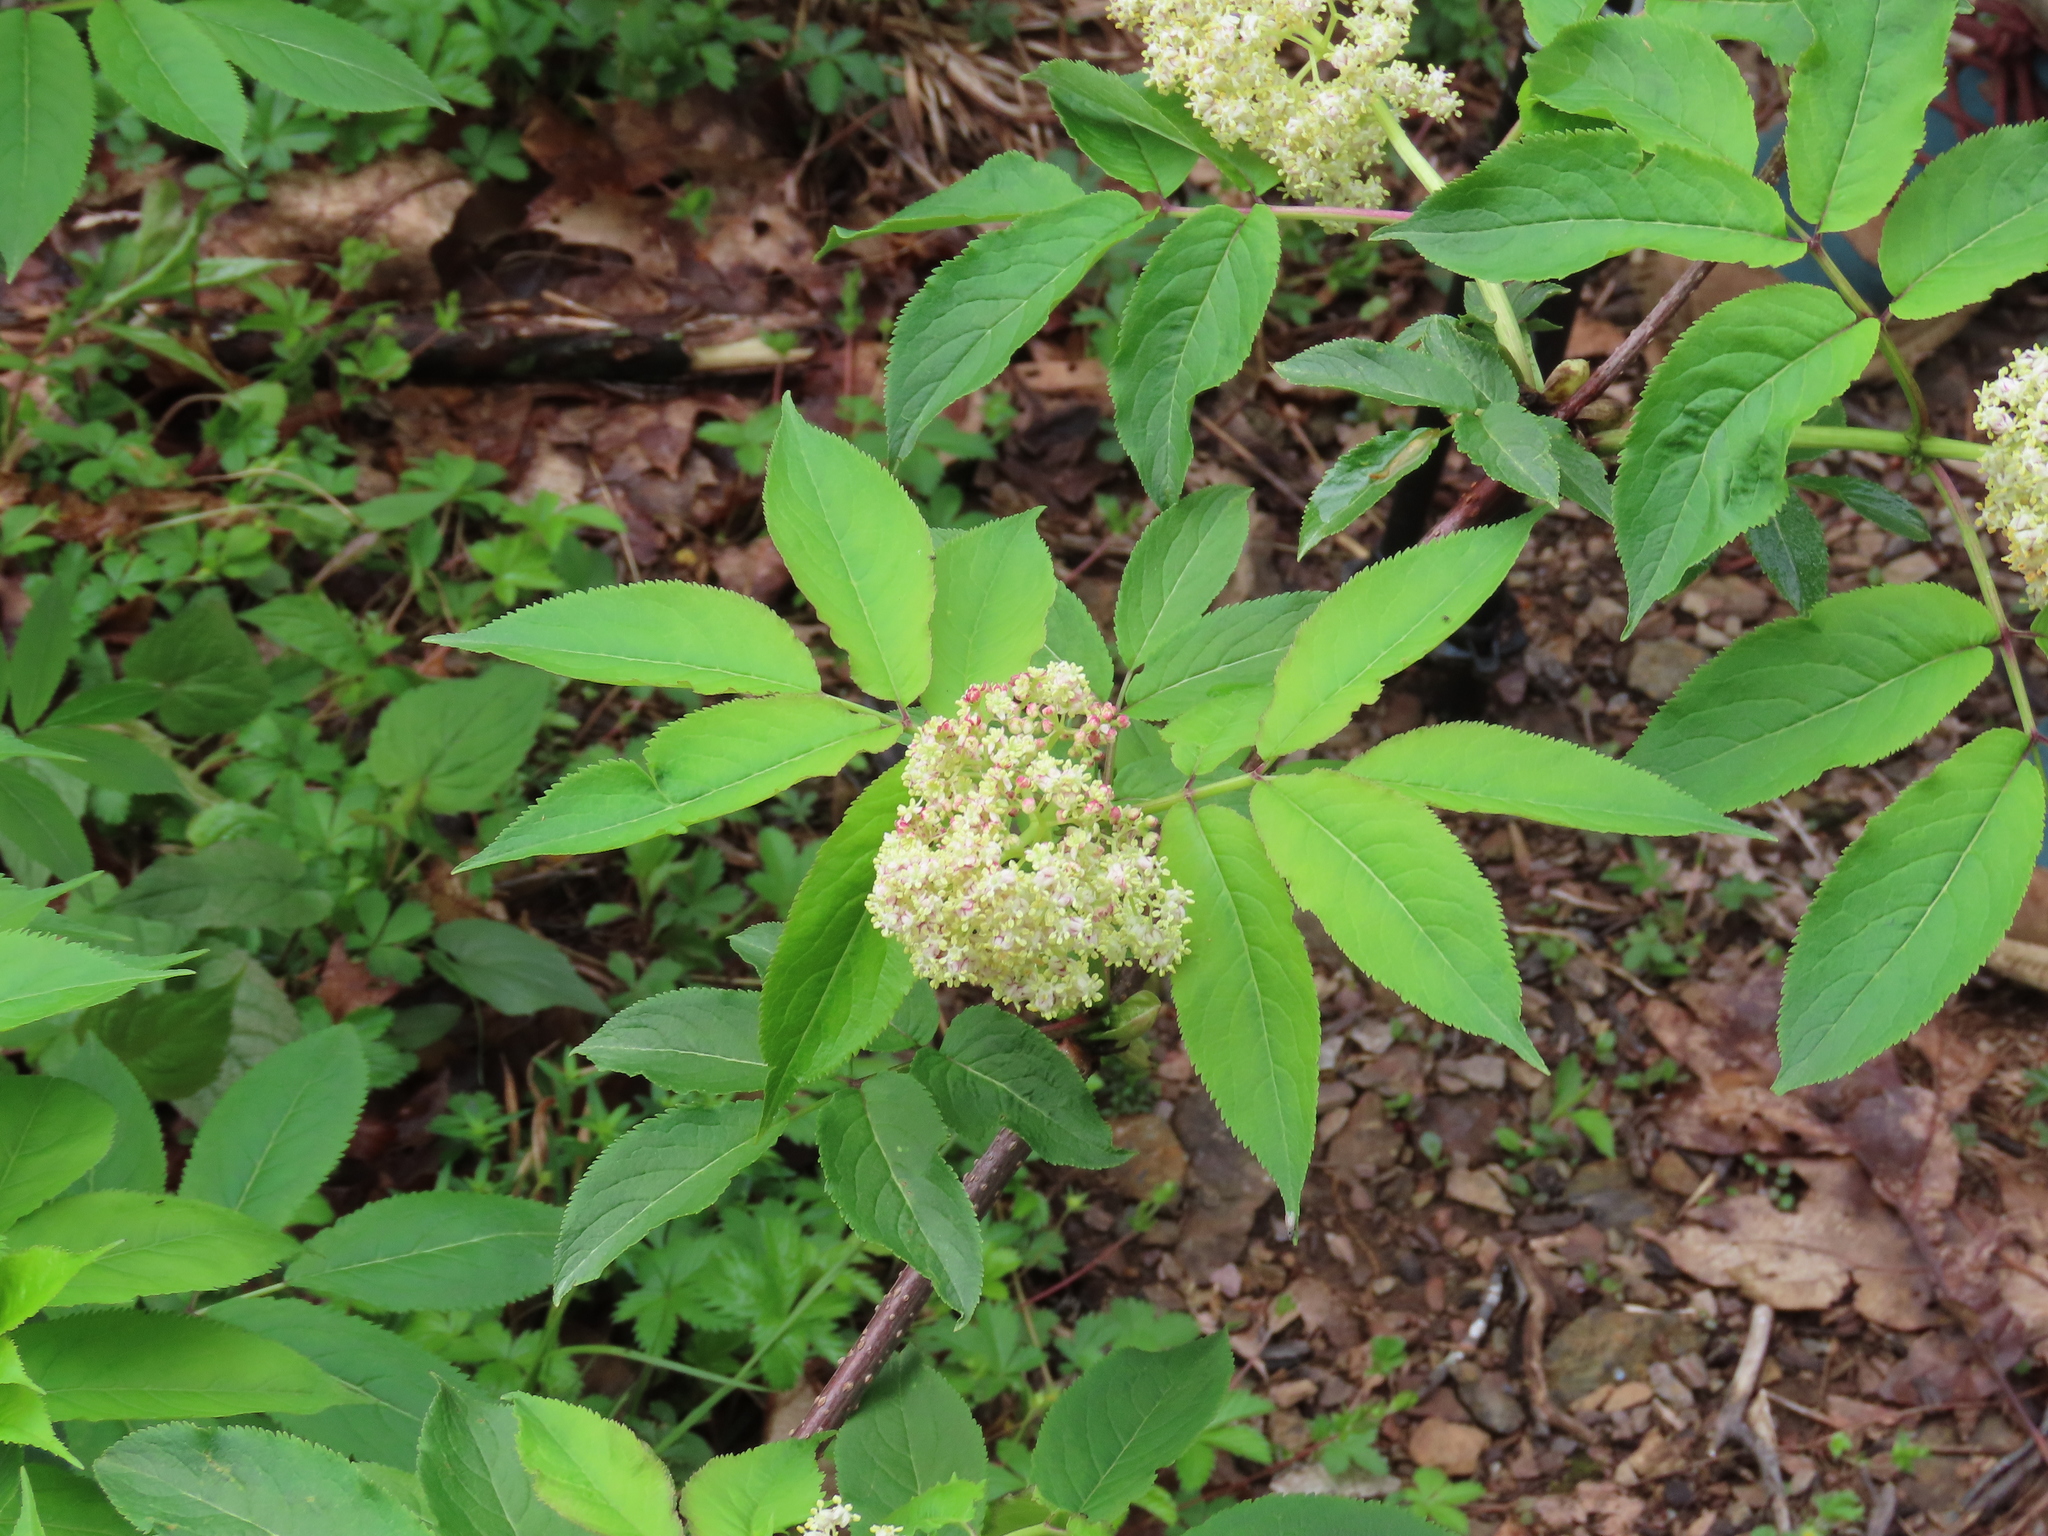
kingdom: Plantae
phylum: Tracheophyta
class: Magnoliopsida
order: Dipsacales
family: Viburnaceae
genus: Sambucus
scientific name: Sambucus racemosa
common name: Red-berried elder
